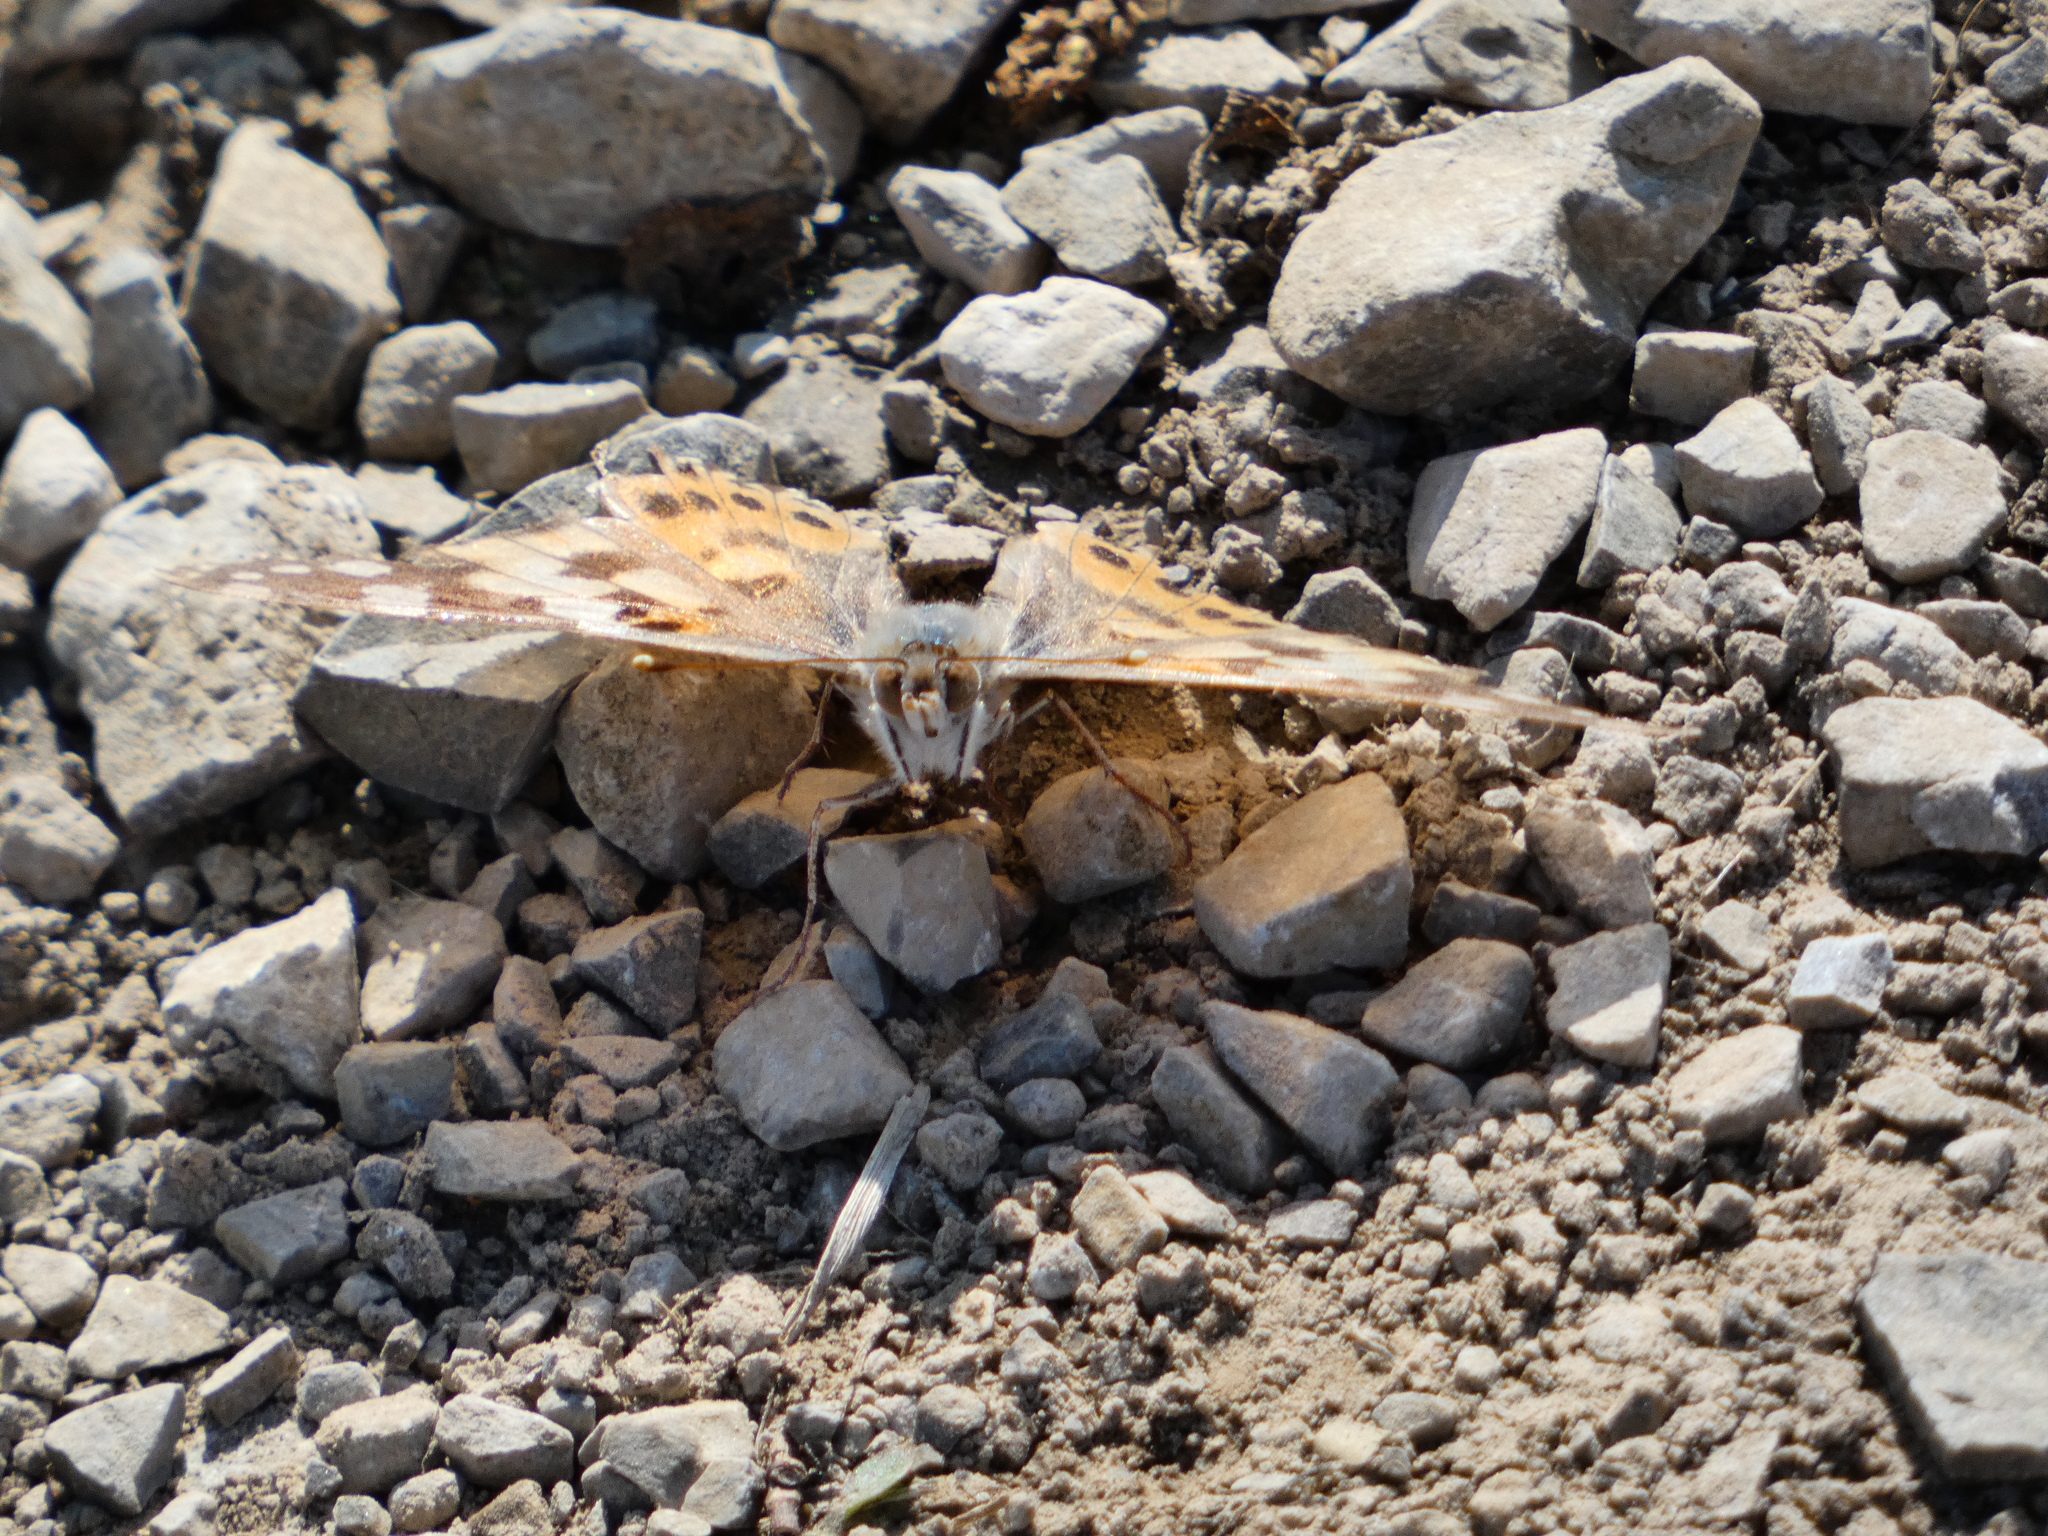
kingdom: Animalia
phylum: Arthropoda
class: Insecta
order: Lepidoptera
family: Nymphalidae
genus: Vanessa
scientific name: Vanessa cardui
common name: Painted lady
